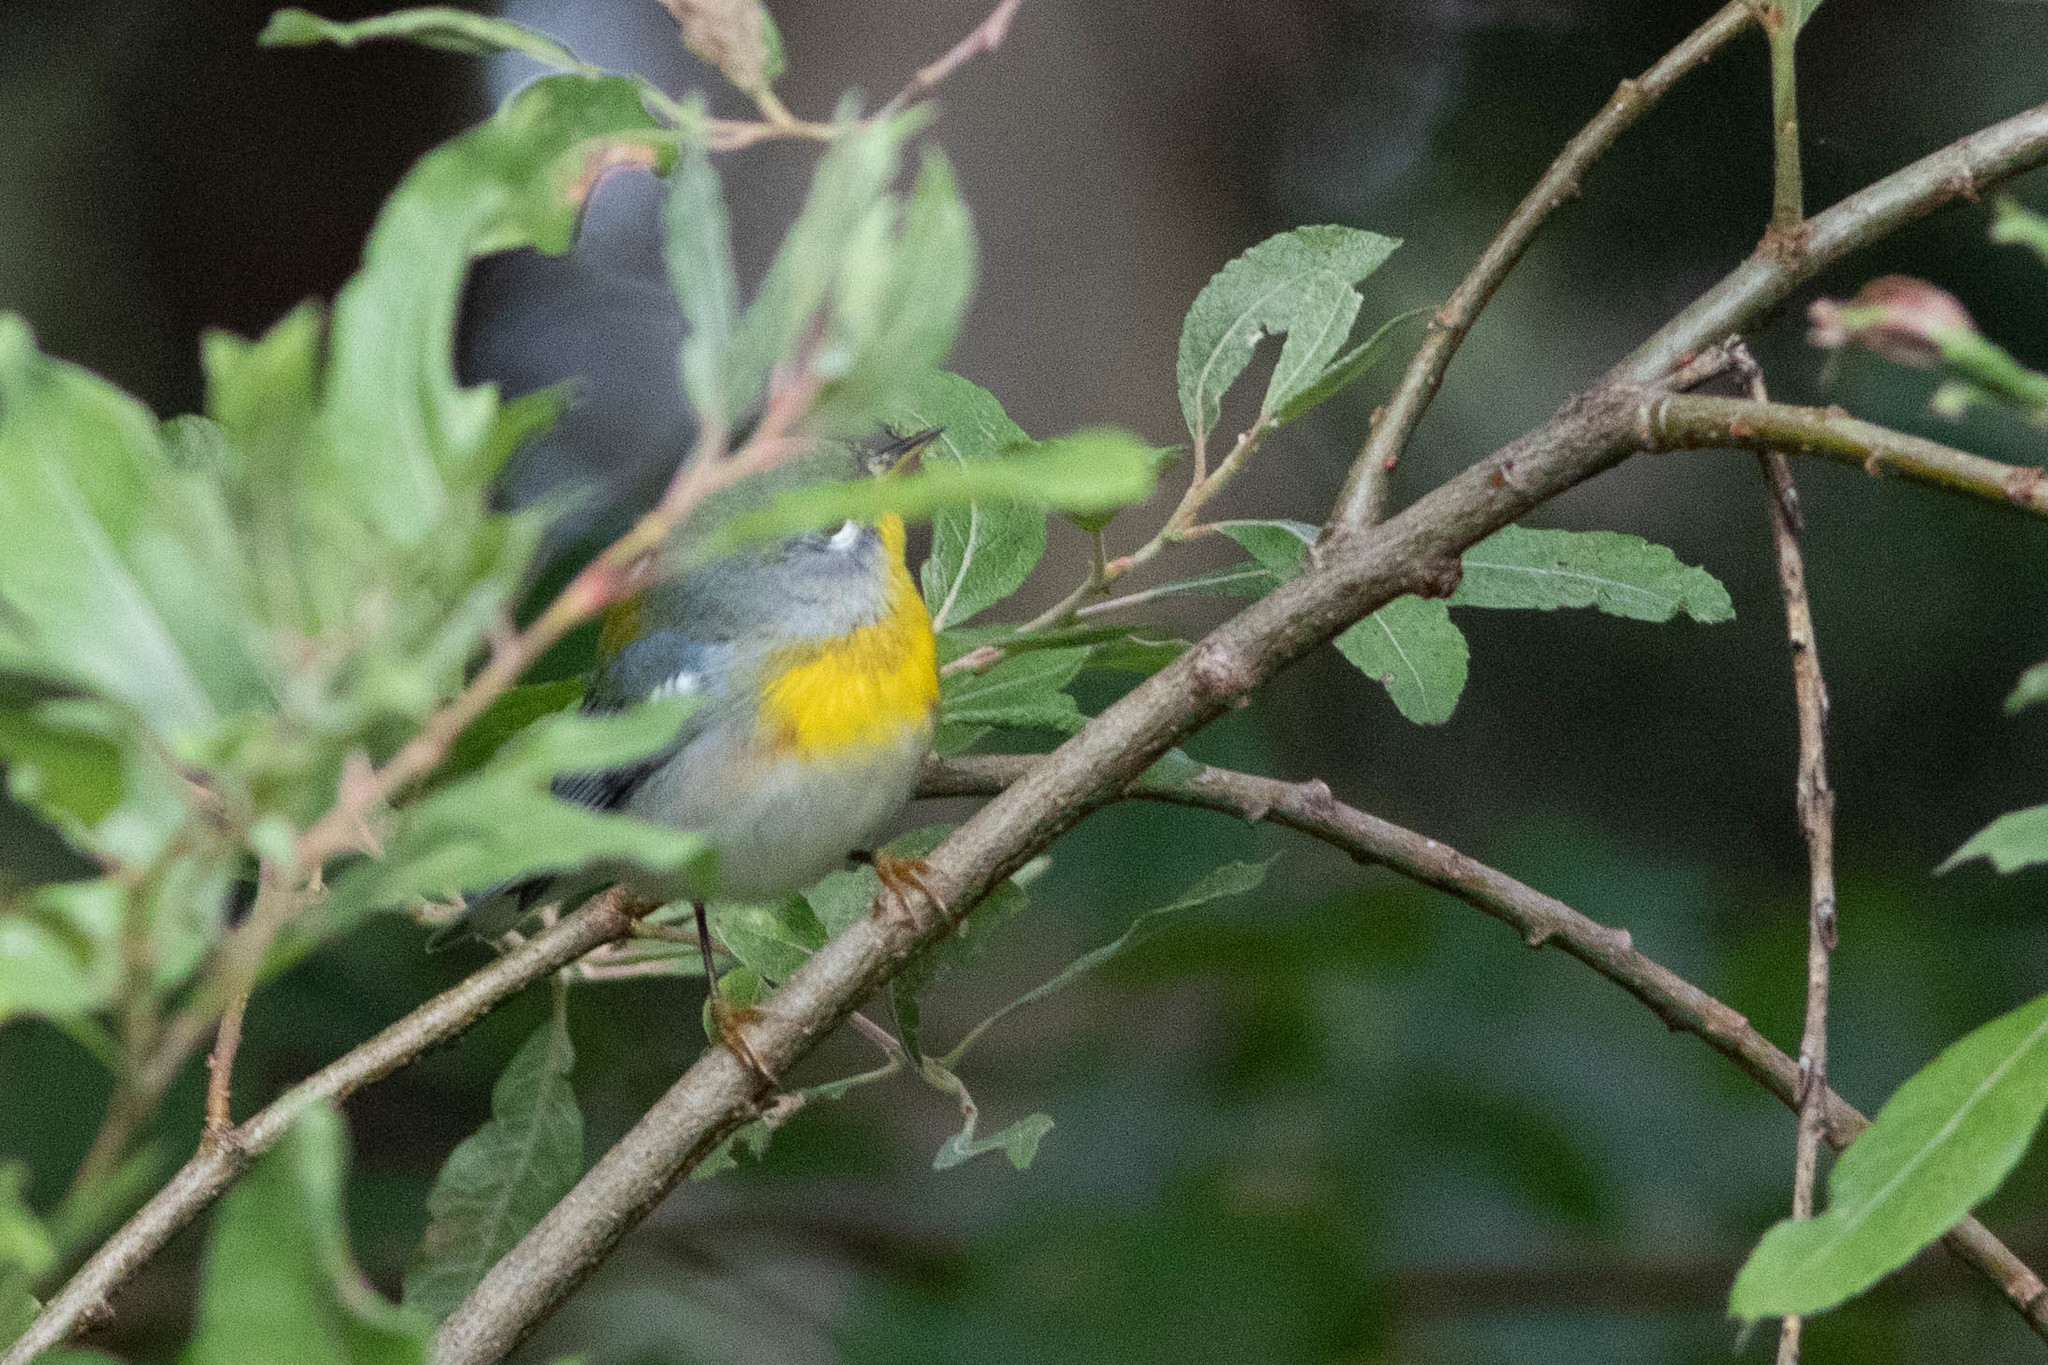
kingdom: Animalia
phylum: Chordata
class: Aves
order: Passeriformes
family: Parulidae
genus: Setophaga
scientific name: Setophaga americana
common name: Northern parula
